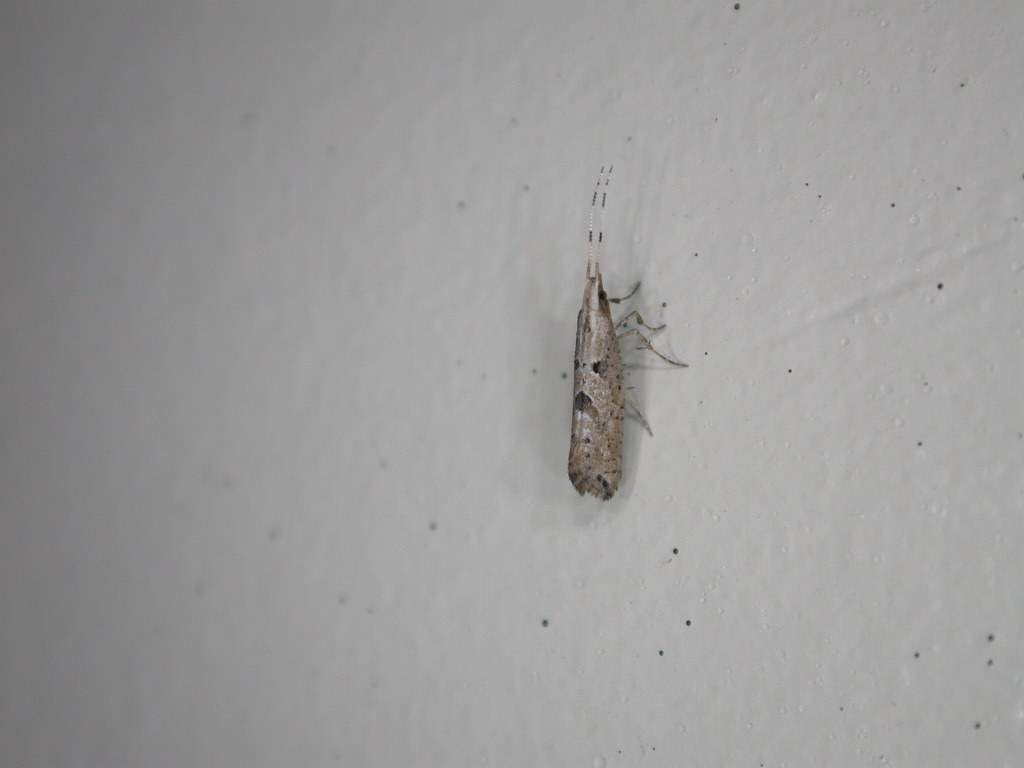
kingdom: Animalia
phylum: Arthropoda
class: Insecta
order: Lepidoptera
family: Plutellidae
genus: Leuroperna
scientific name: Leuroperna sera
